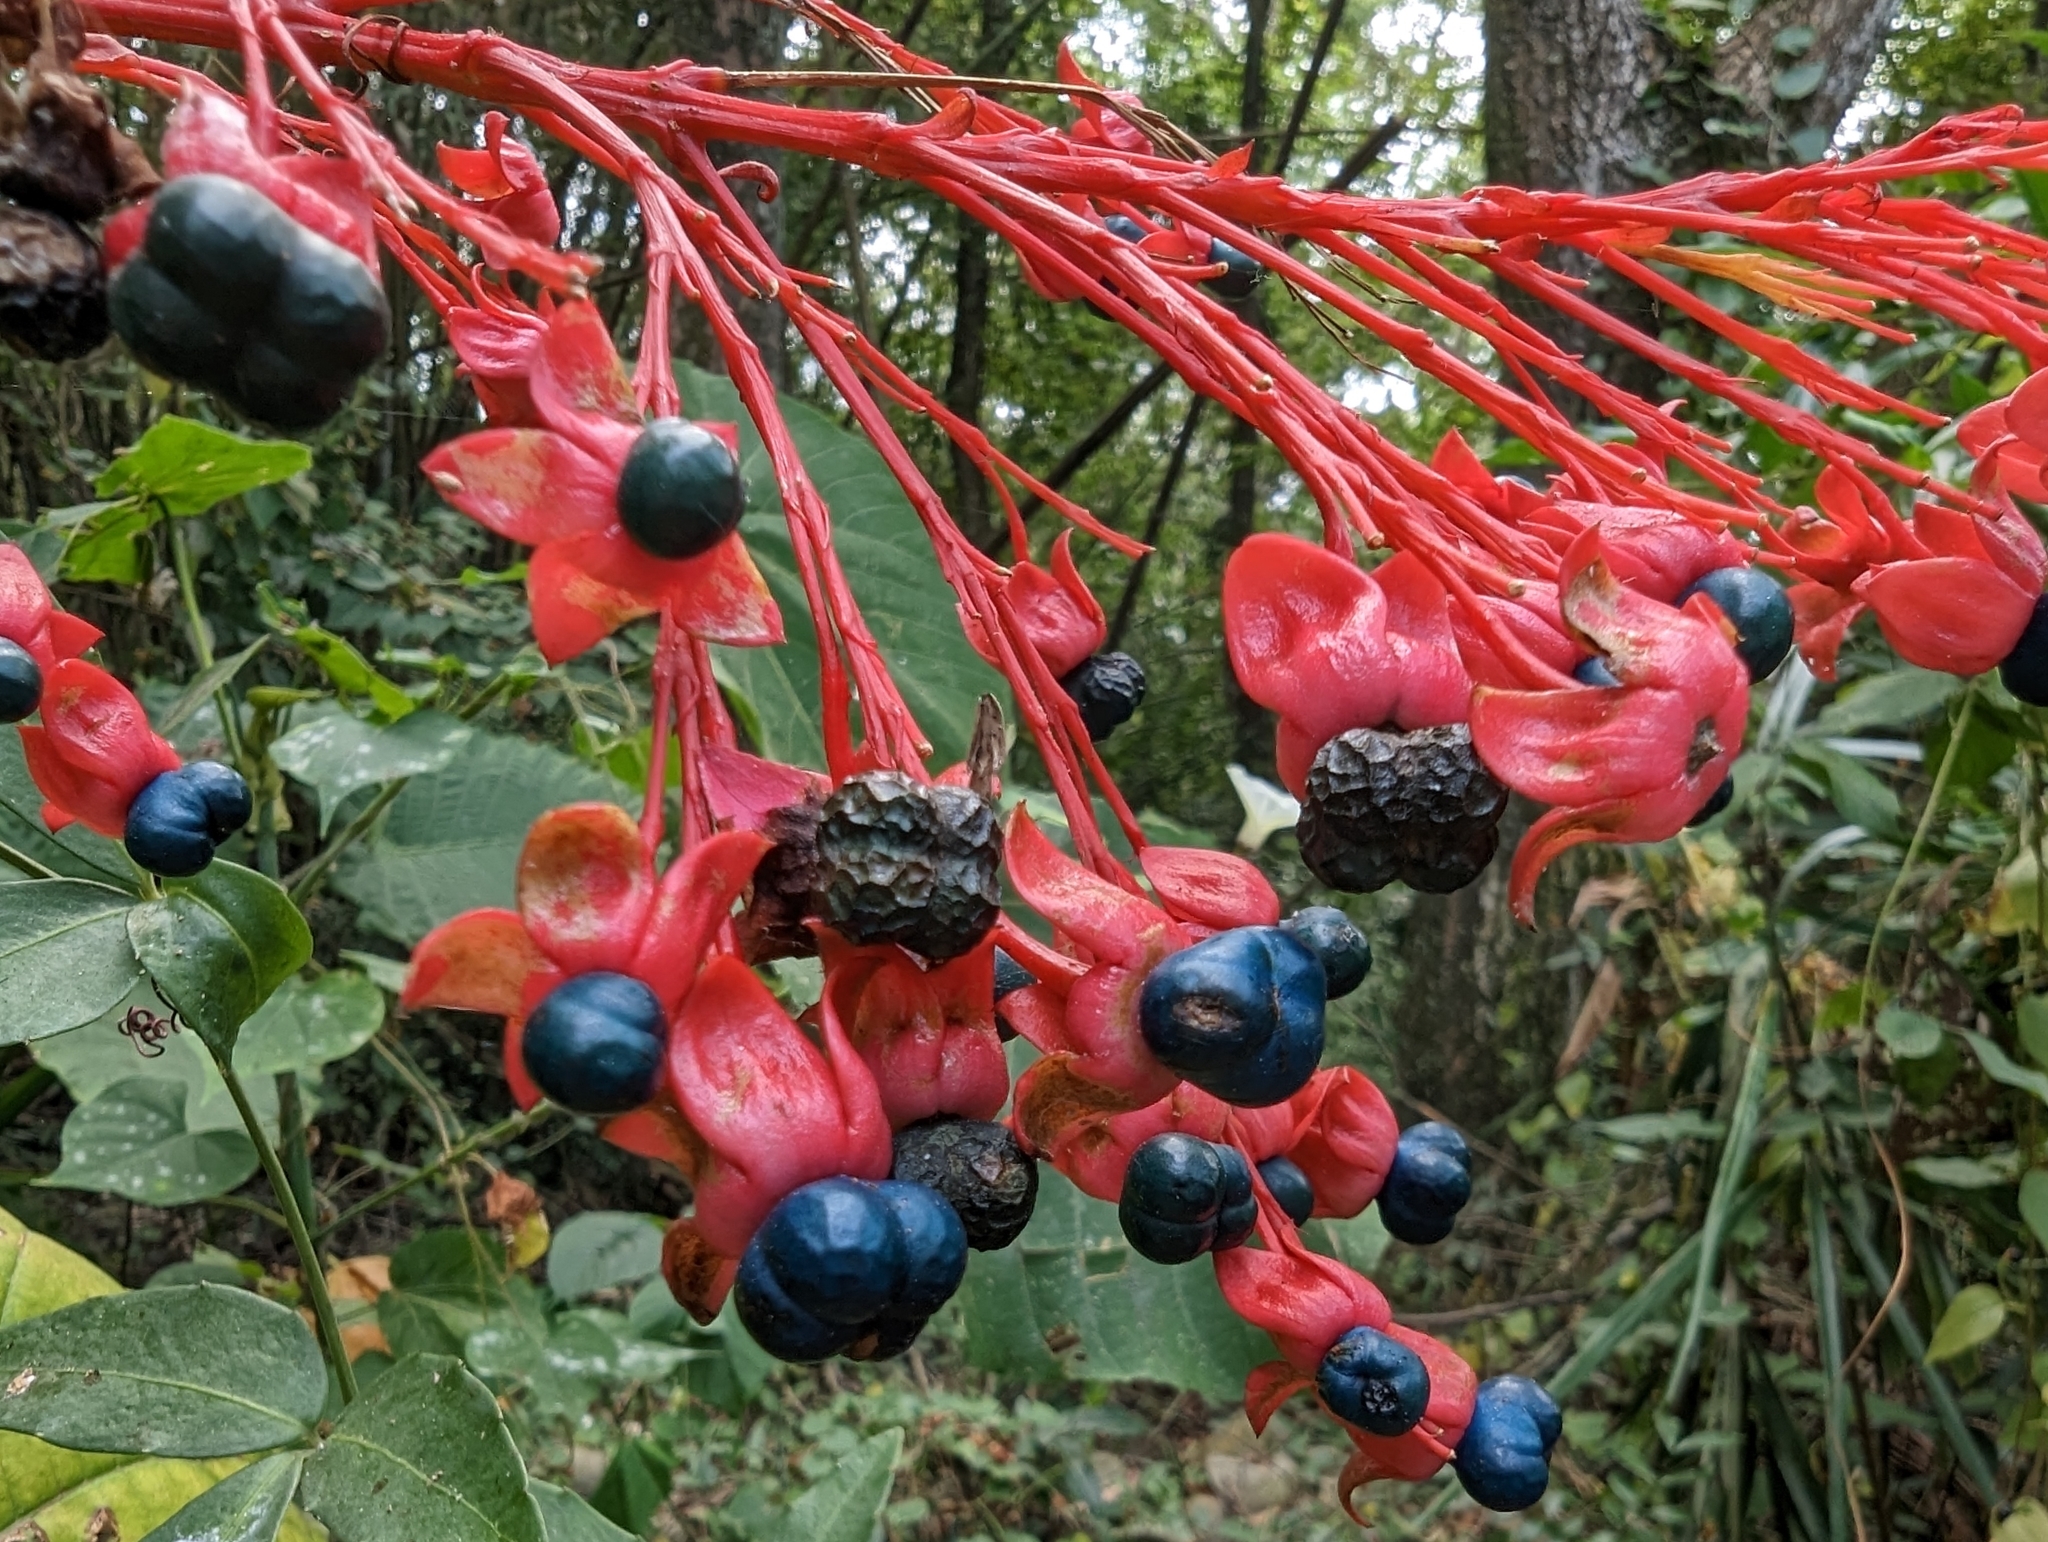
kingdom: Plantae
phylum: Tracheophyta
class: Magnoliopsida
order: Lamiales
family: Lamiaceae
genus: Clerodendrum
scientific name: Clerodendrum japonicum
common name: Japanese glorybower
